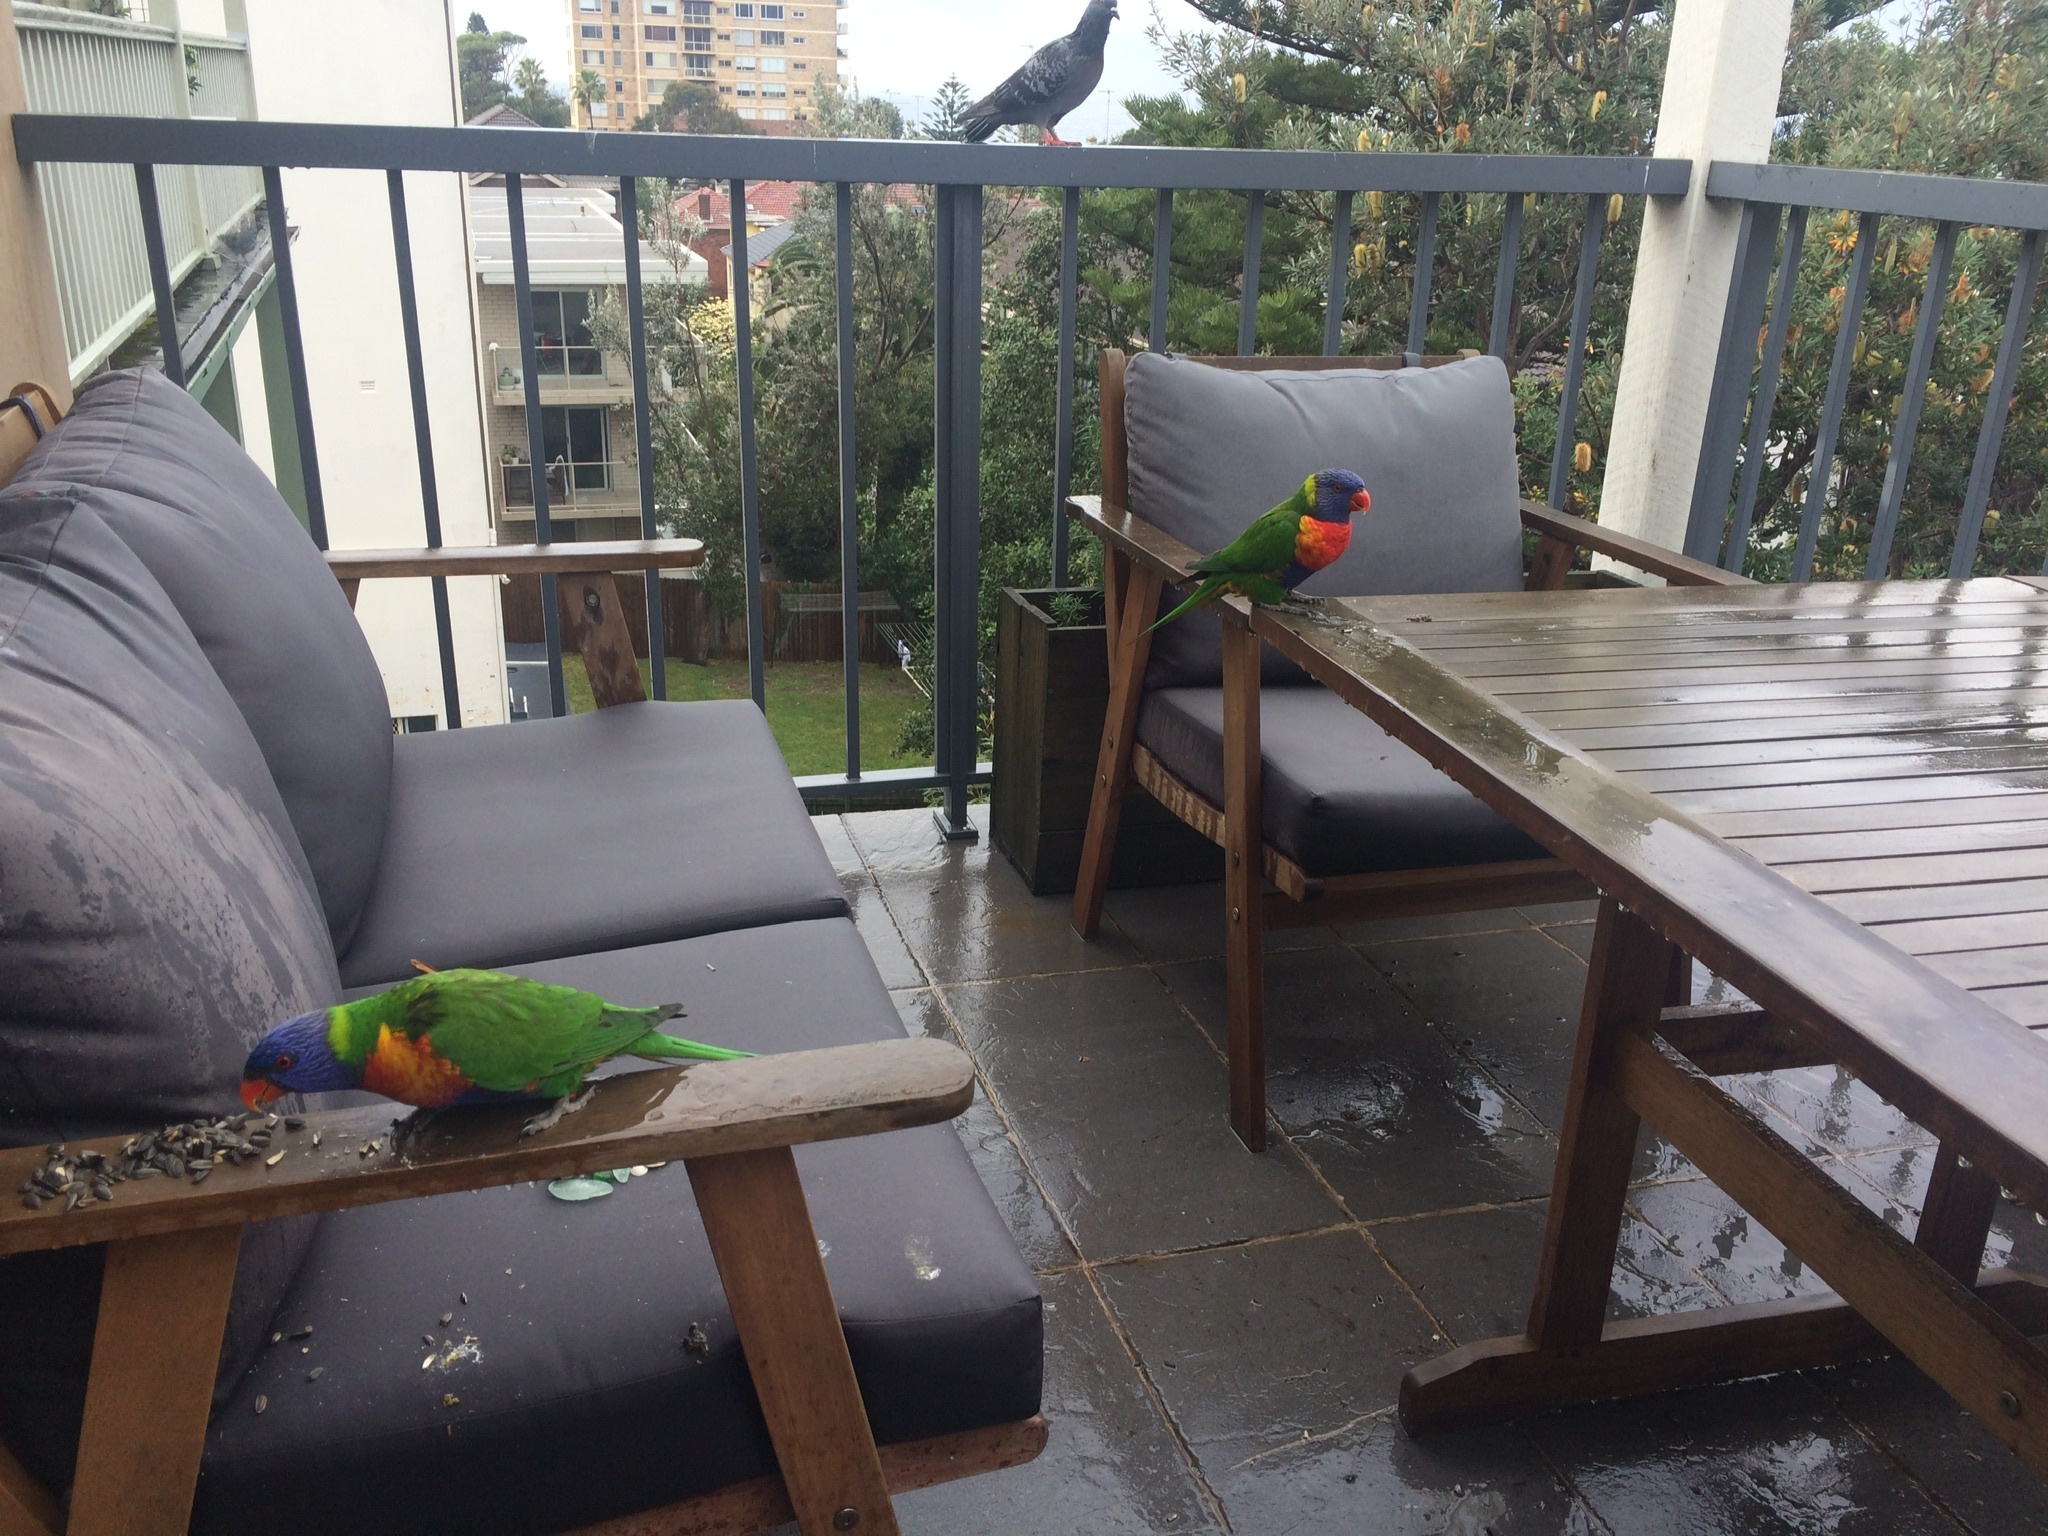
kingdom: Animalia
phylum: Chordata
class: Aves
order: Psittaciformes
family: Psittacidae
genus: Trichoglossus
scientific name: Trichoglossus haematodus
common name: Coconut lorikeet
